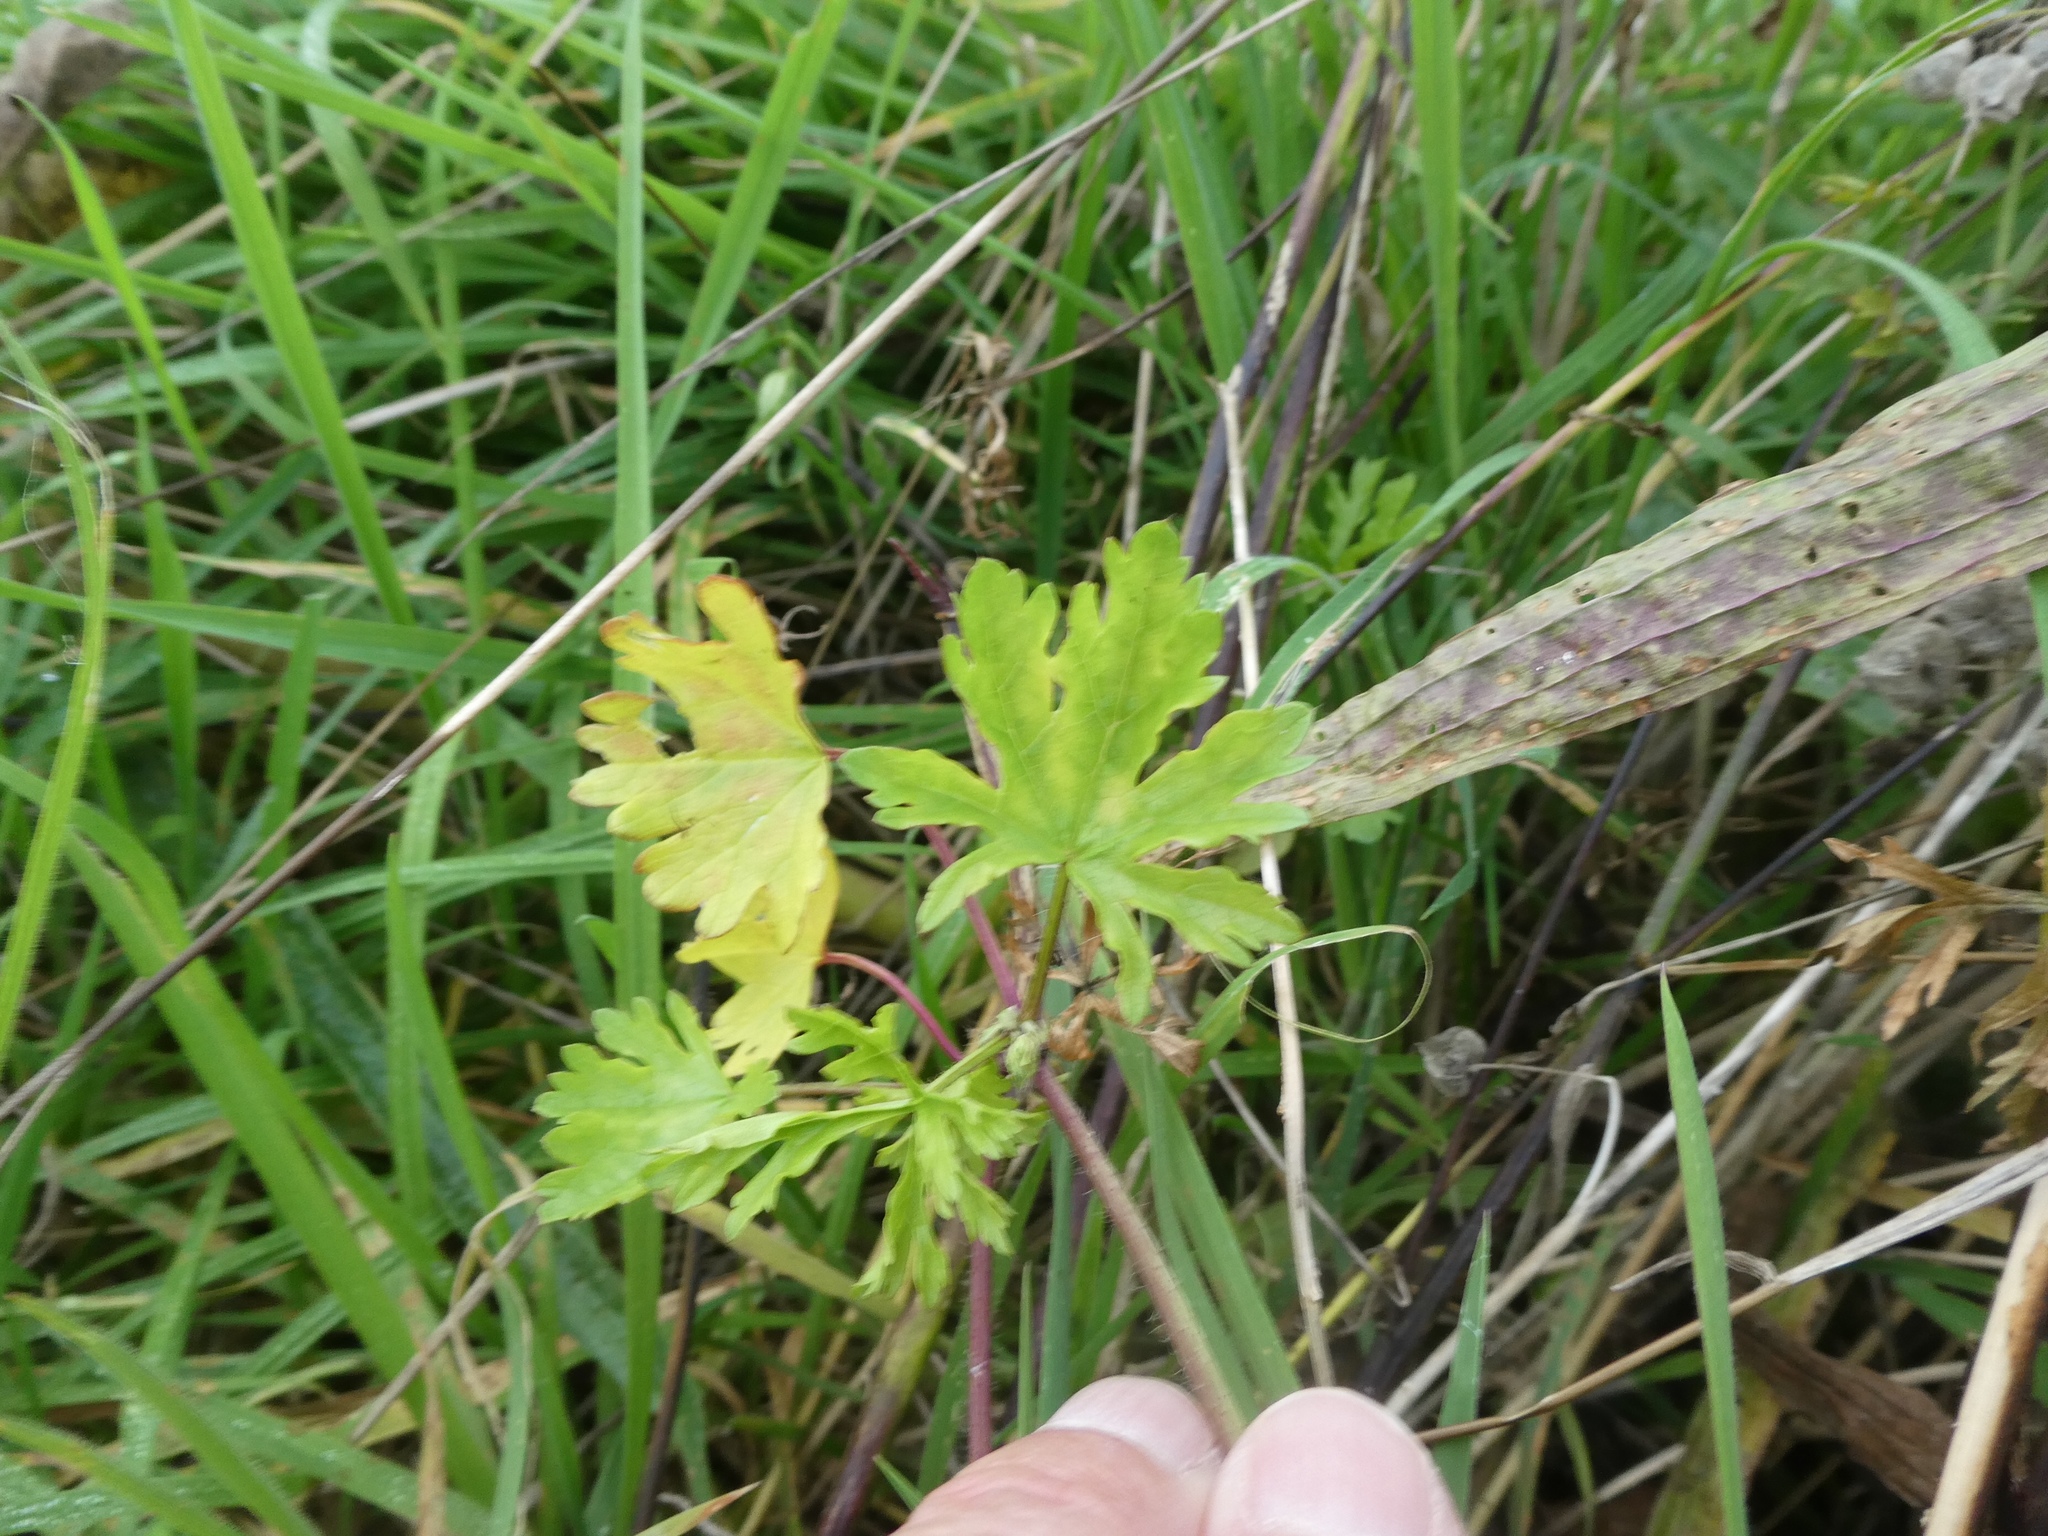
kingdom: Plantae
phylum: Tracheophyta
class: Magnoliopsida
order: Malvales
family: Malvaceae
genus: Malva
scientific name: Malva moschata
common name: Musk mallow
